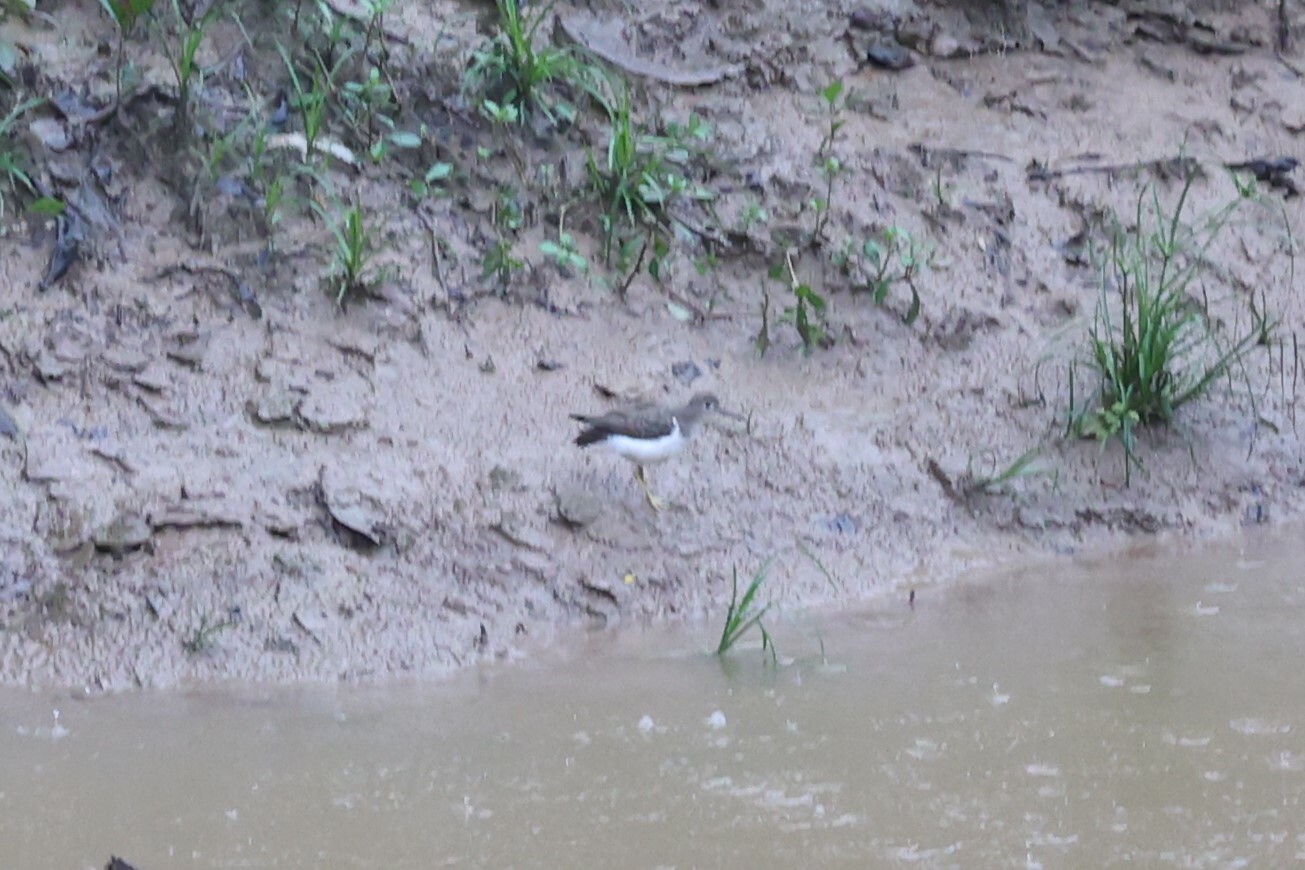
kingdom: Animalia
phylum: Chordata
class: Aves
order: Charadriiformes
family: Scolopacidae
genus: Actitis
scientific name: Actitis macularius
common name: Spotted sandpiper
